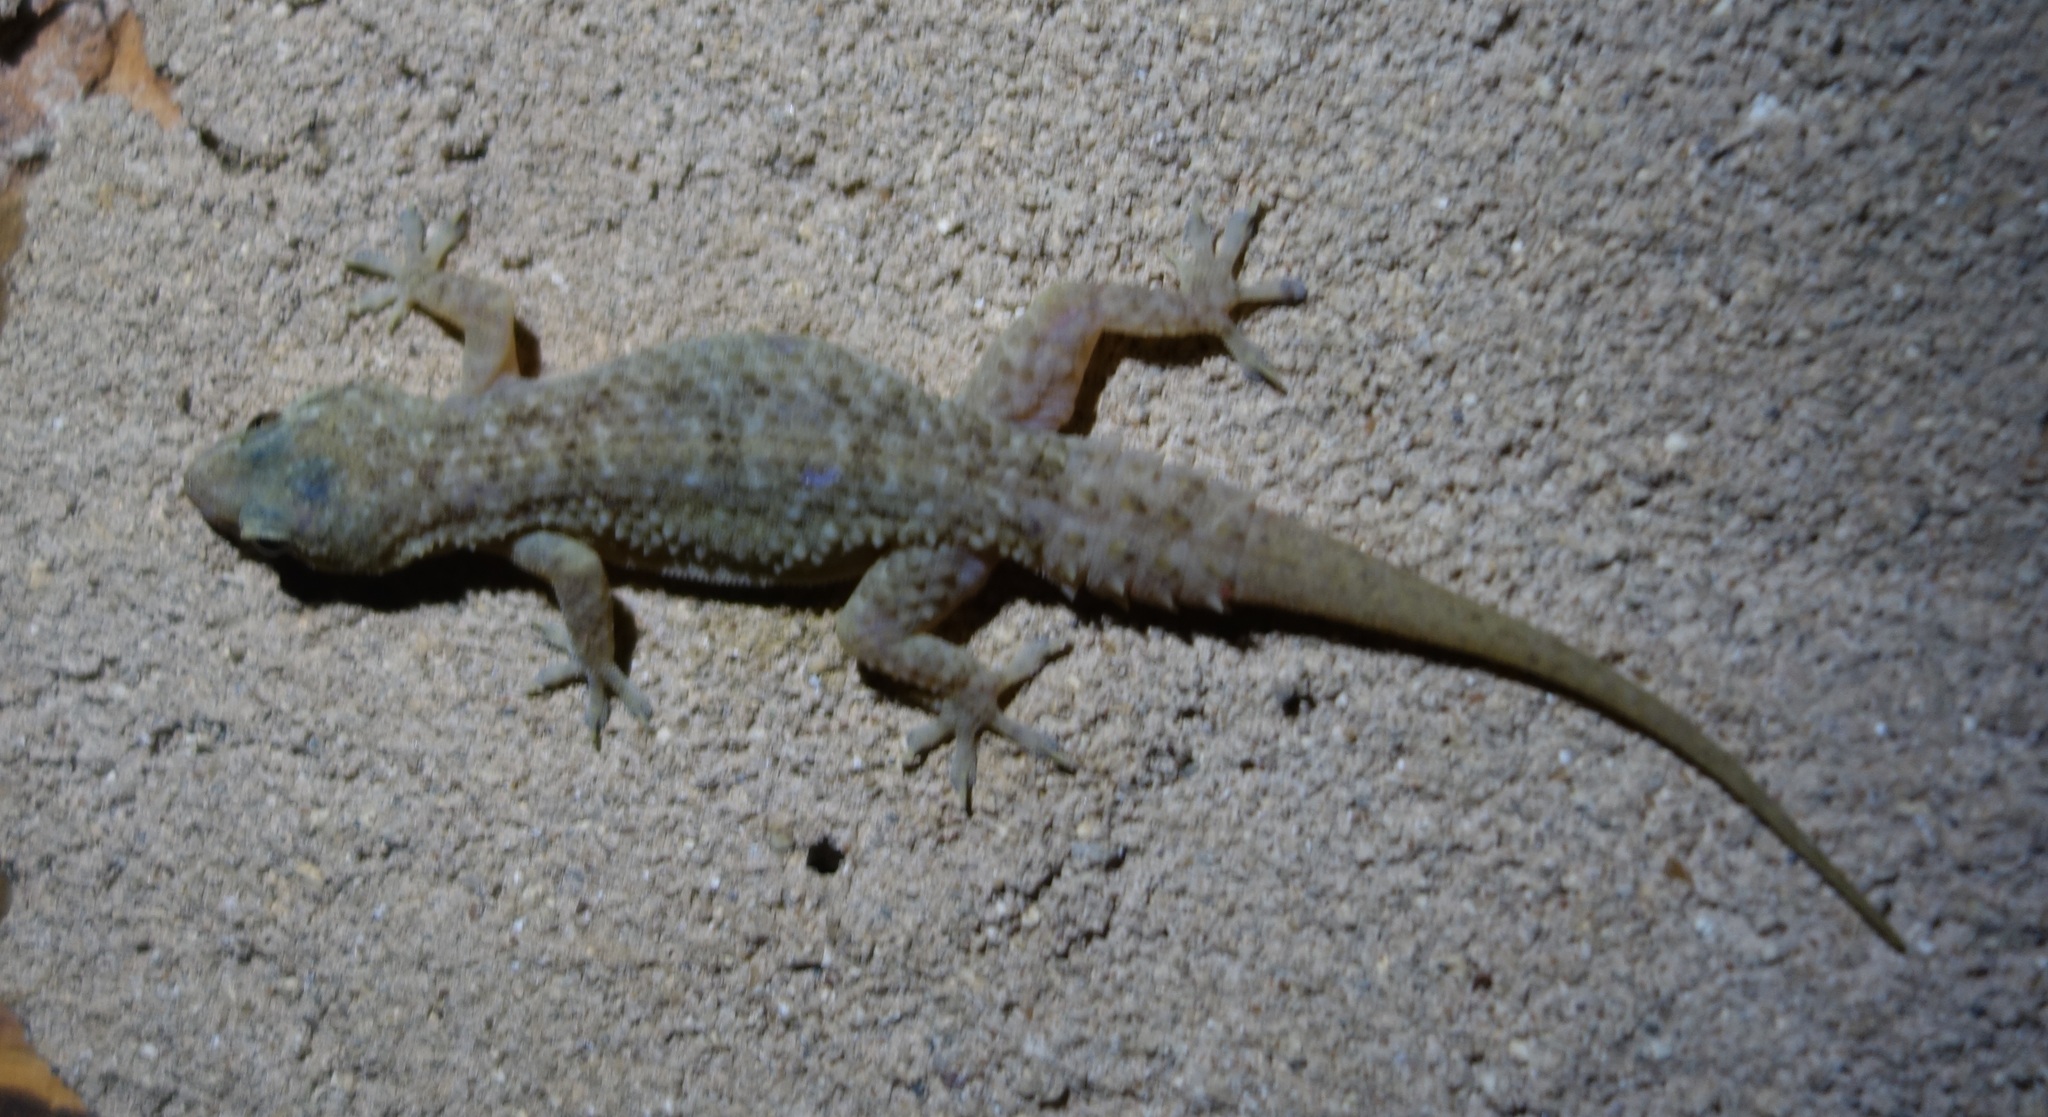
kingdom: Animalia
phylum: Chordata
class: Squamata
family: Gekkonidae
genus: Hemidactylus
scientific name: Hemidactylus murrayi
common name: Murray’s house gecko
